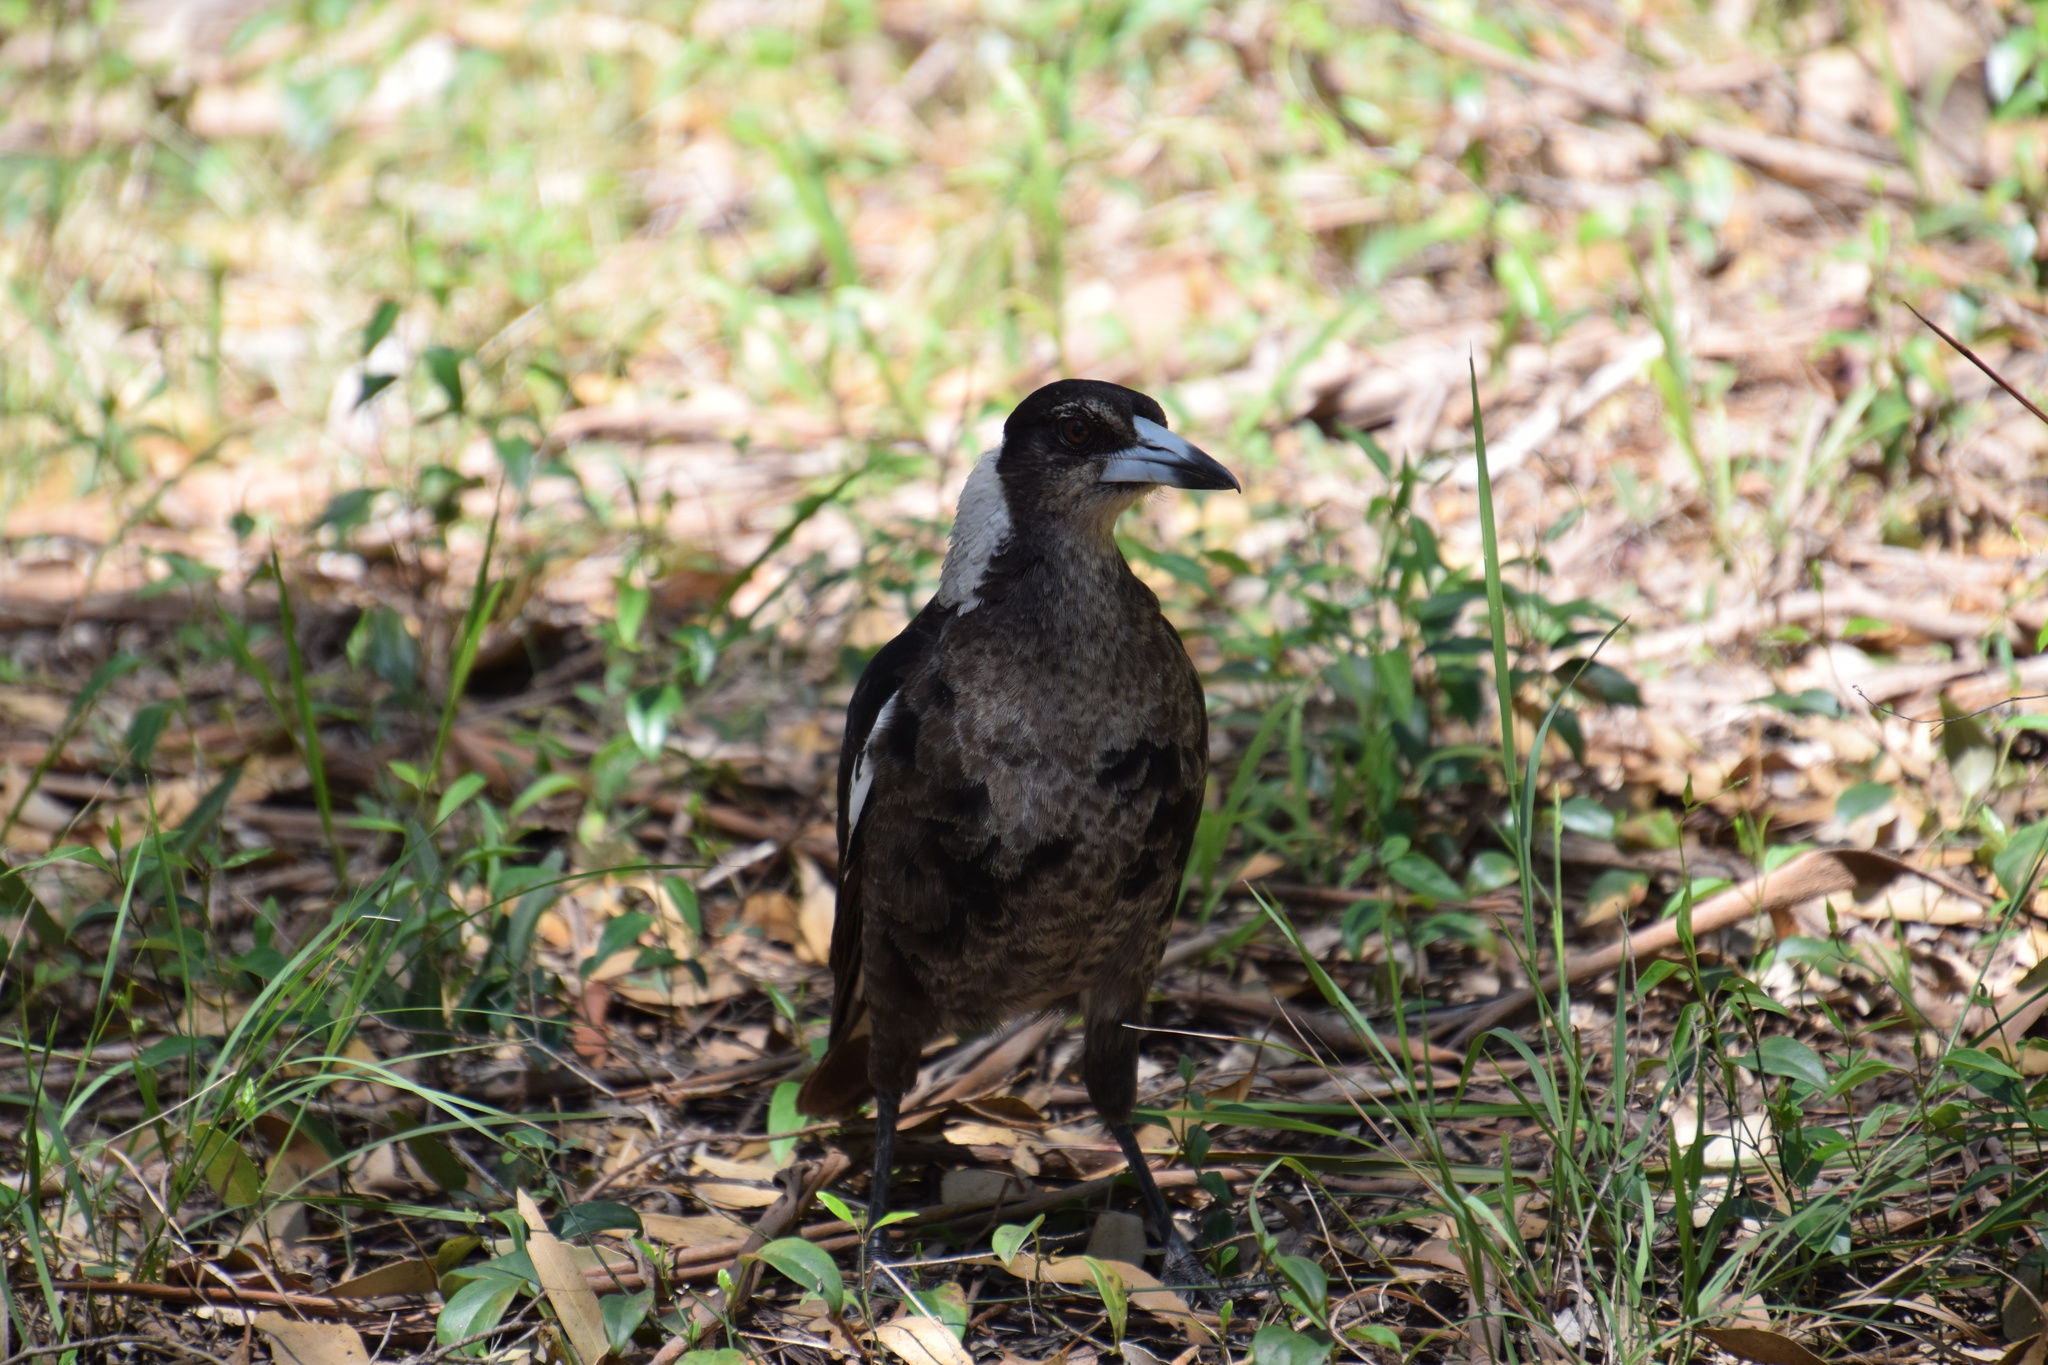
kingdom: Animalia
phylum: Chordata
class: Aves
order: Passeriformes
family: Cracticidae
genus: Gymnorhina
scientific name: Gymnorhina tibicen
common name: Australian magpie
